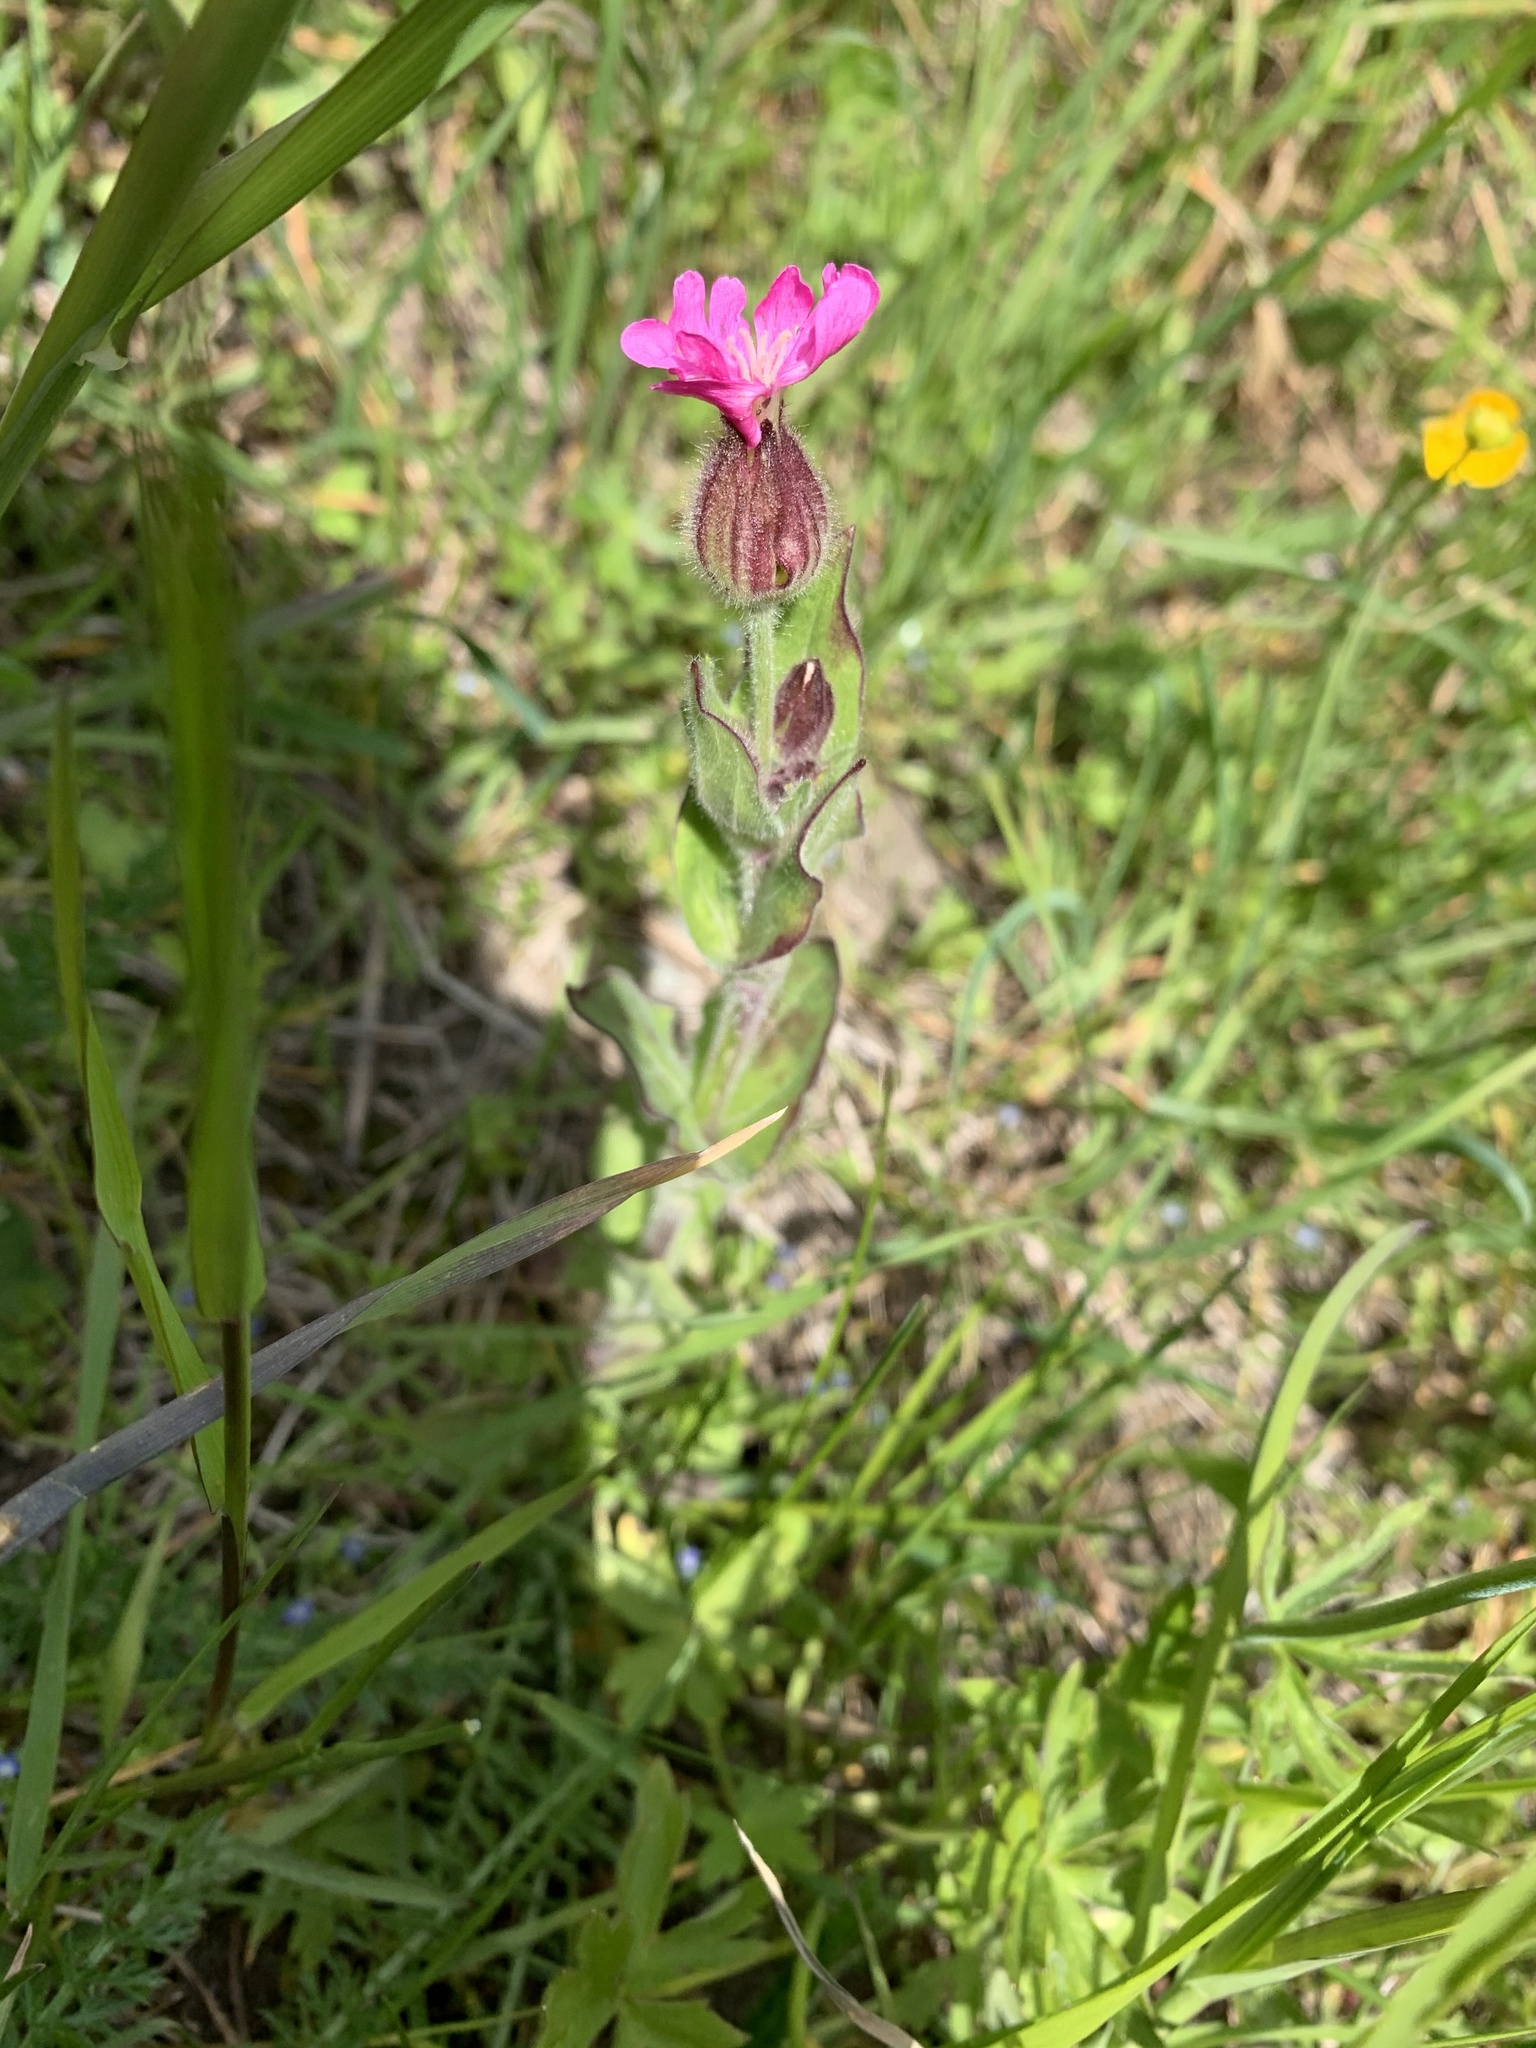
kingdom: Plantae
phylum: Tracheophyta
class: Magnoliopsida
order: Caryophyllales
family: Caryophyllaceae
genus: Silene
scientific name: Silene dioica
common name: Red campion
